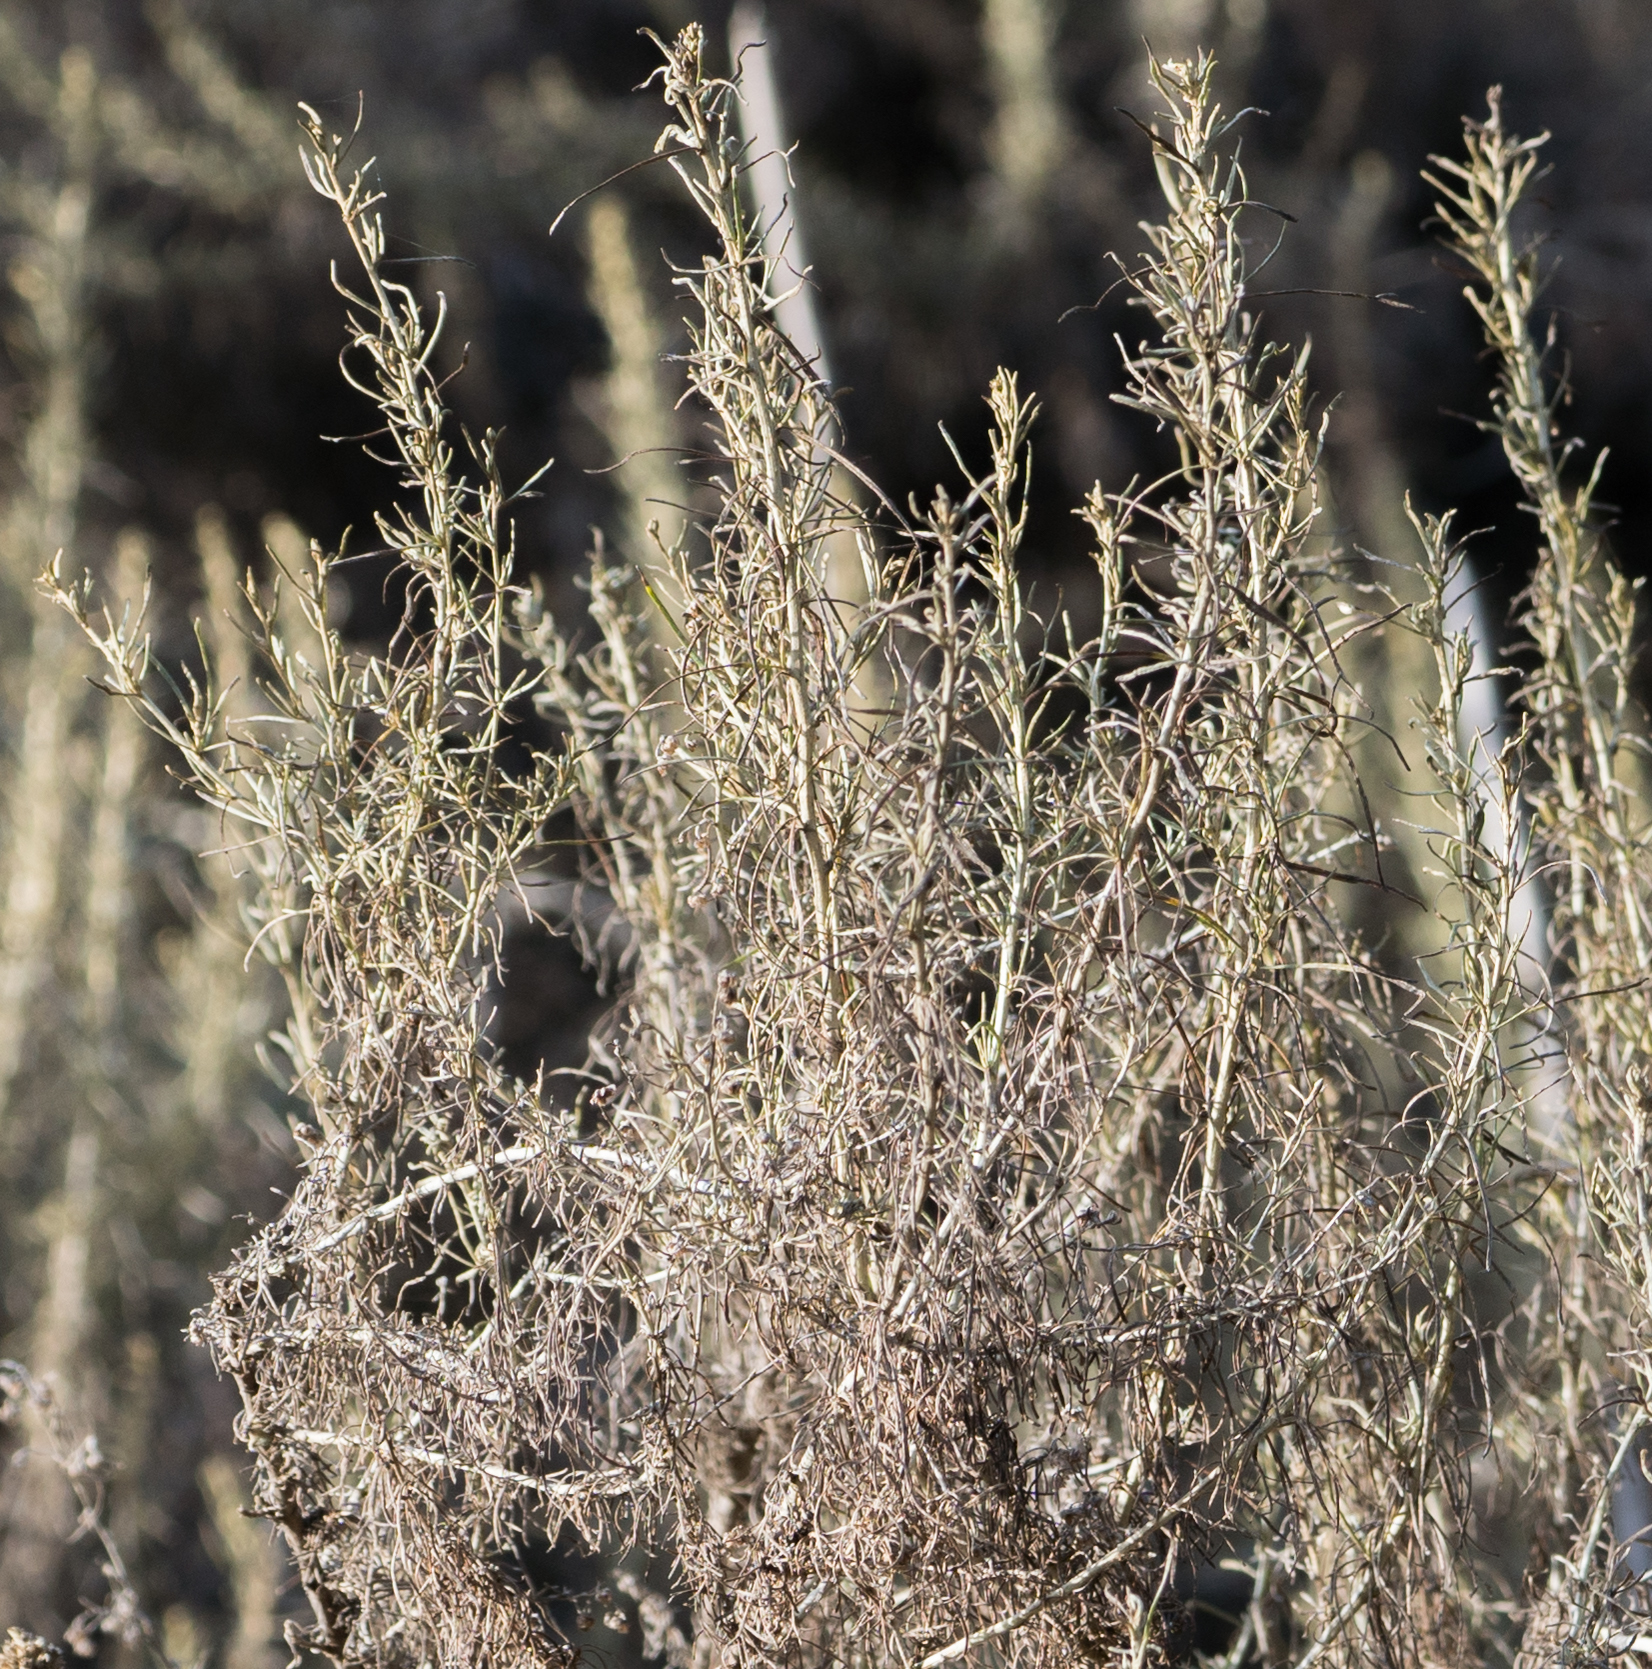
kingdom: Plantae
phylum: Tracheophyta
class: Magnoliopsida
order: Asterales
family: Asteraceae
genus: Artemisia
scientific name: Artemisia californica
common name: California sagebrush
